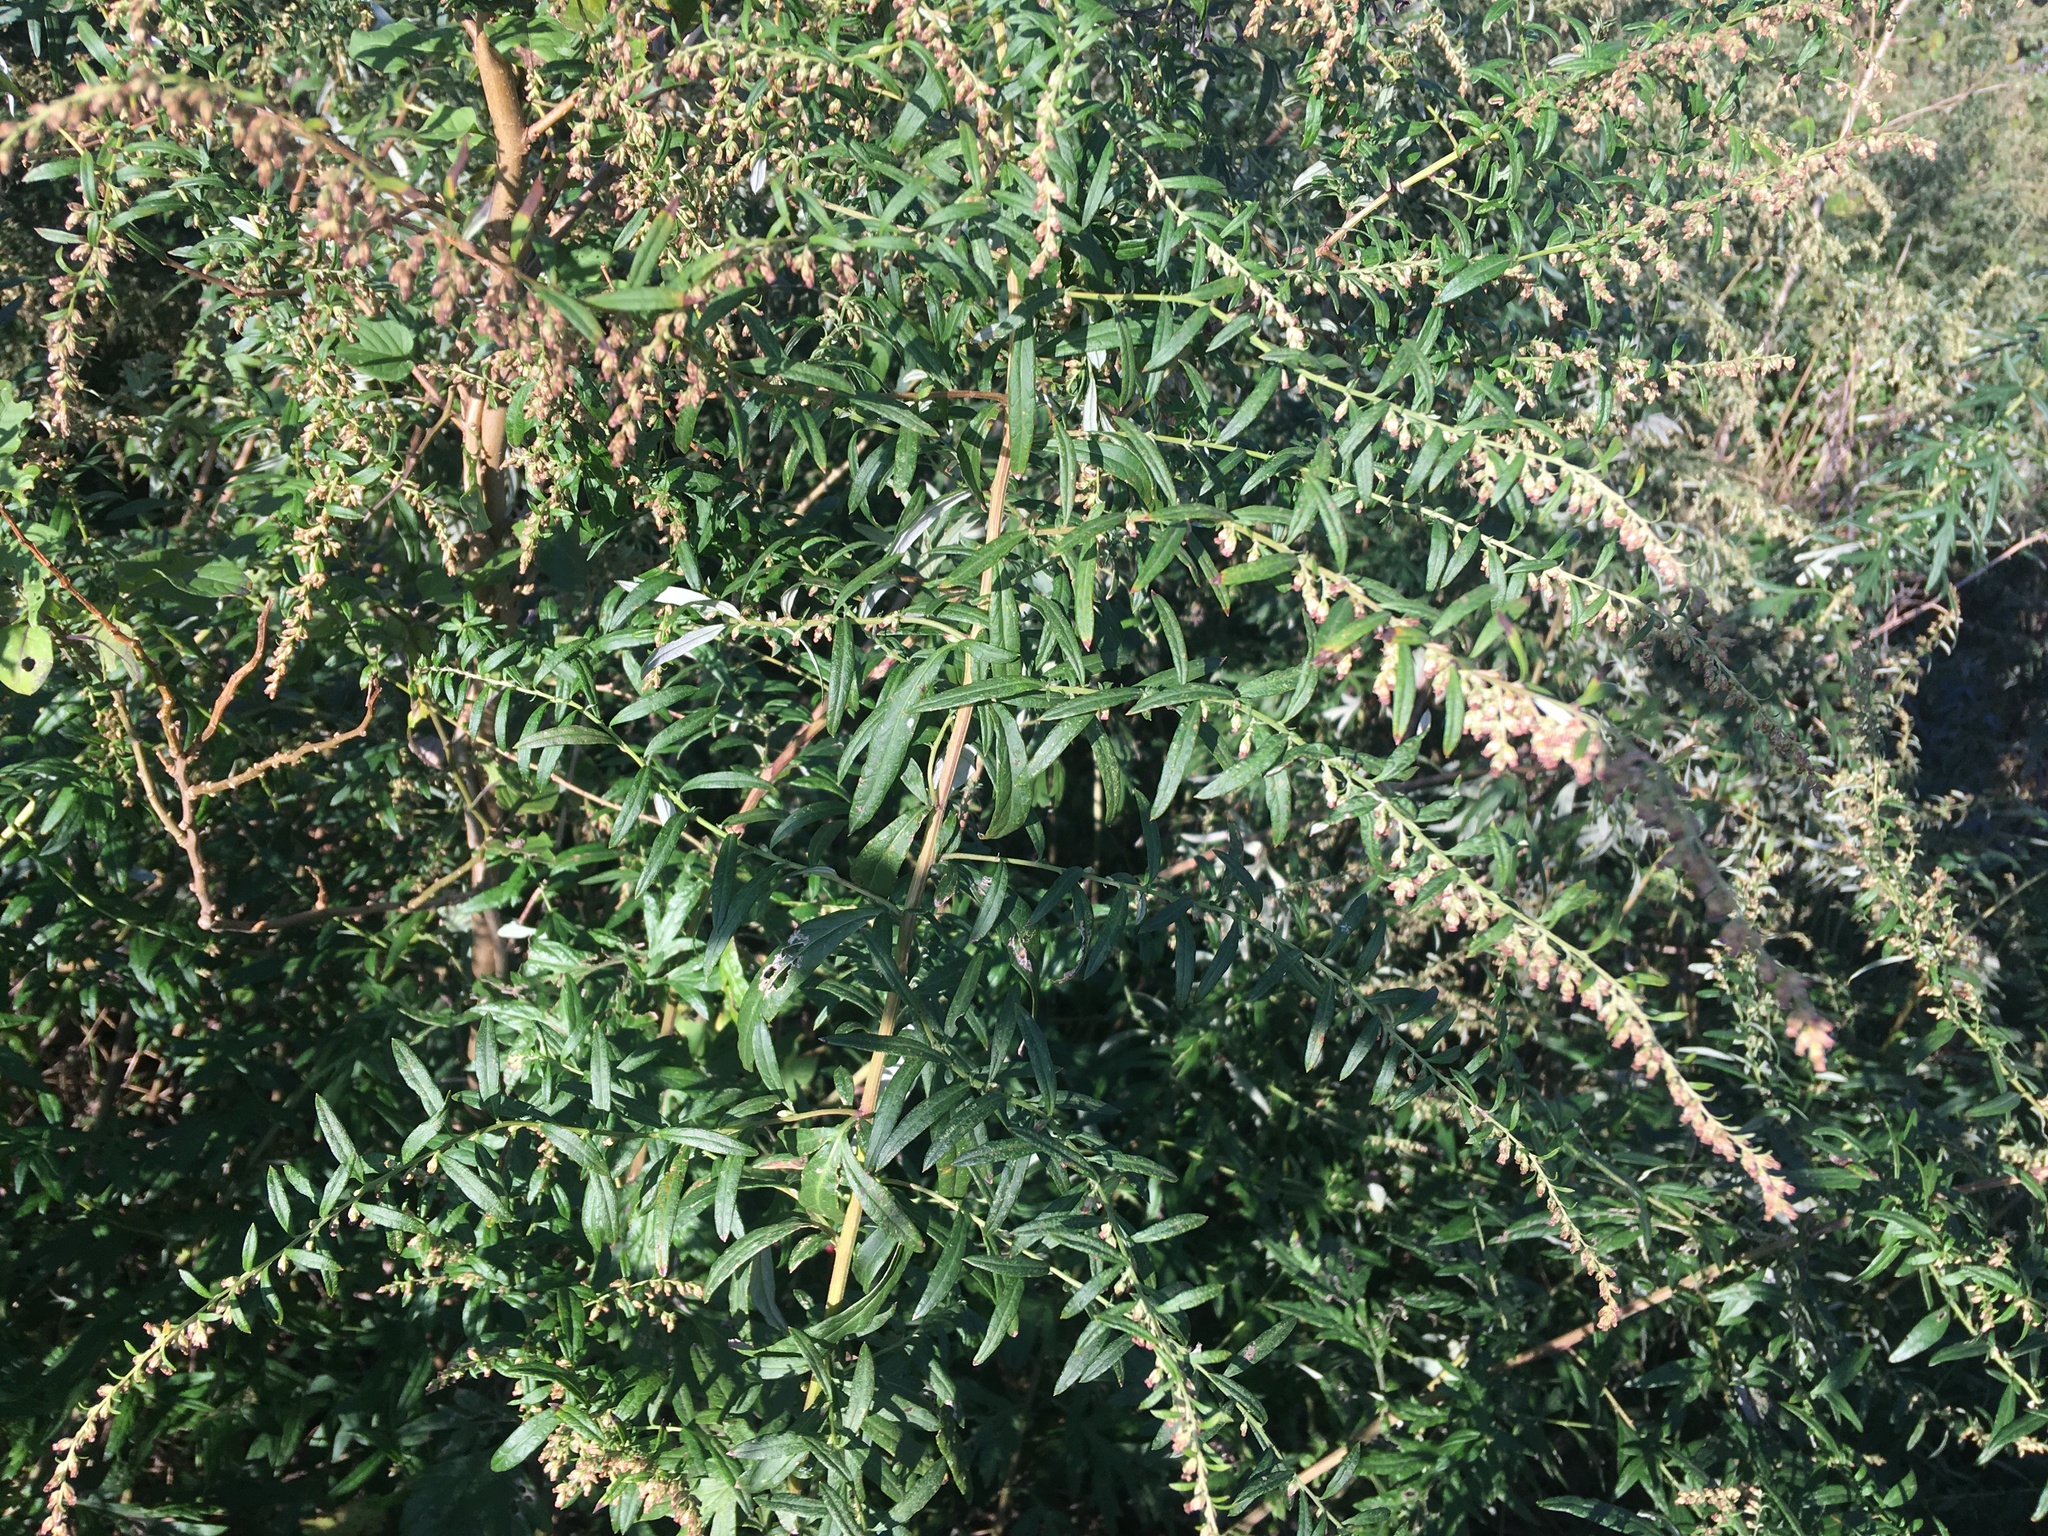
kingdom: Plantae
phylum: Tracheophyta
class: Magnoliopsida
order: Asterales
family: Asteraceae
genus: Artemisia
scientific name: Artemisia vulgaris
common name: Mugwort
